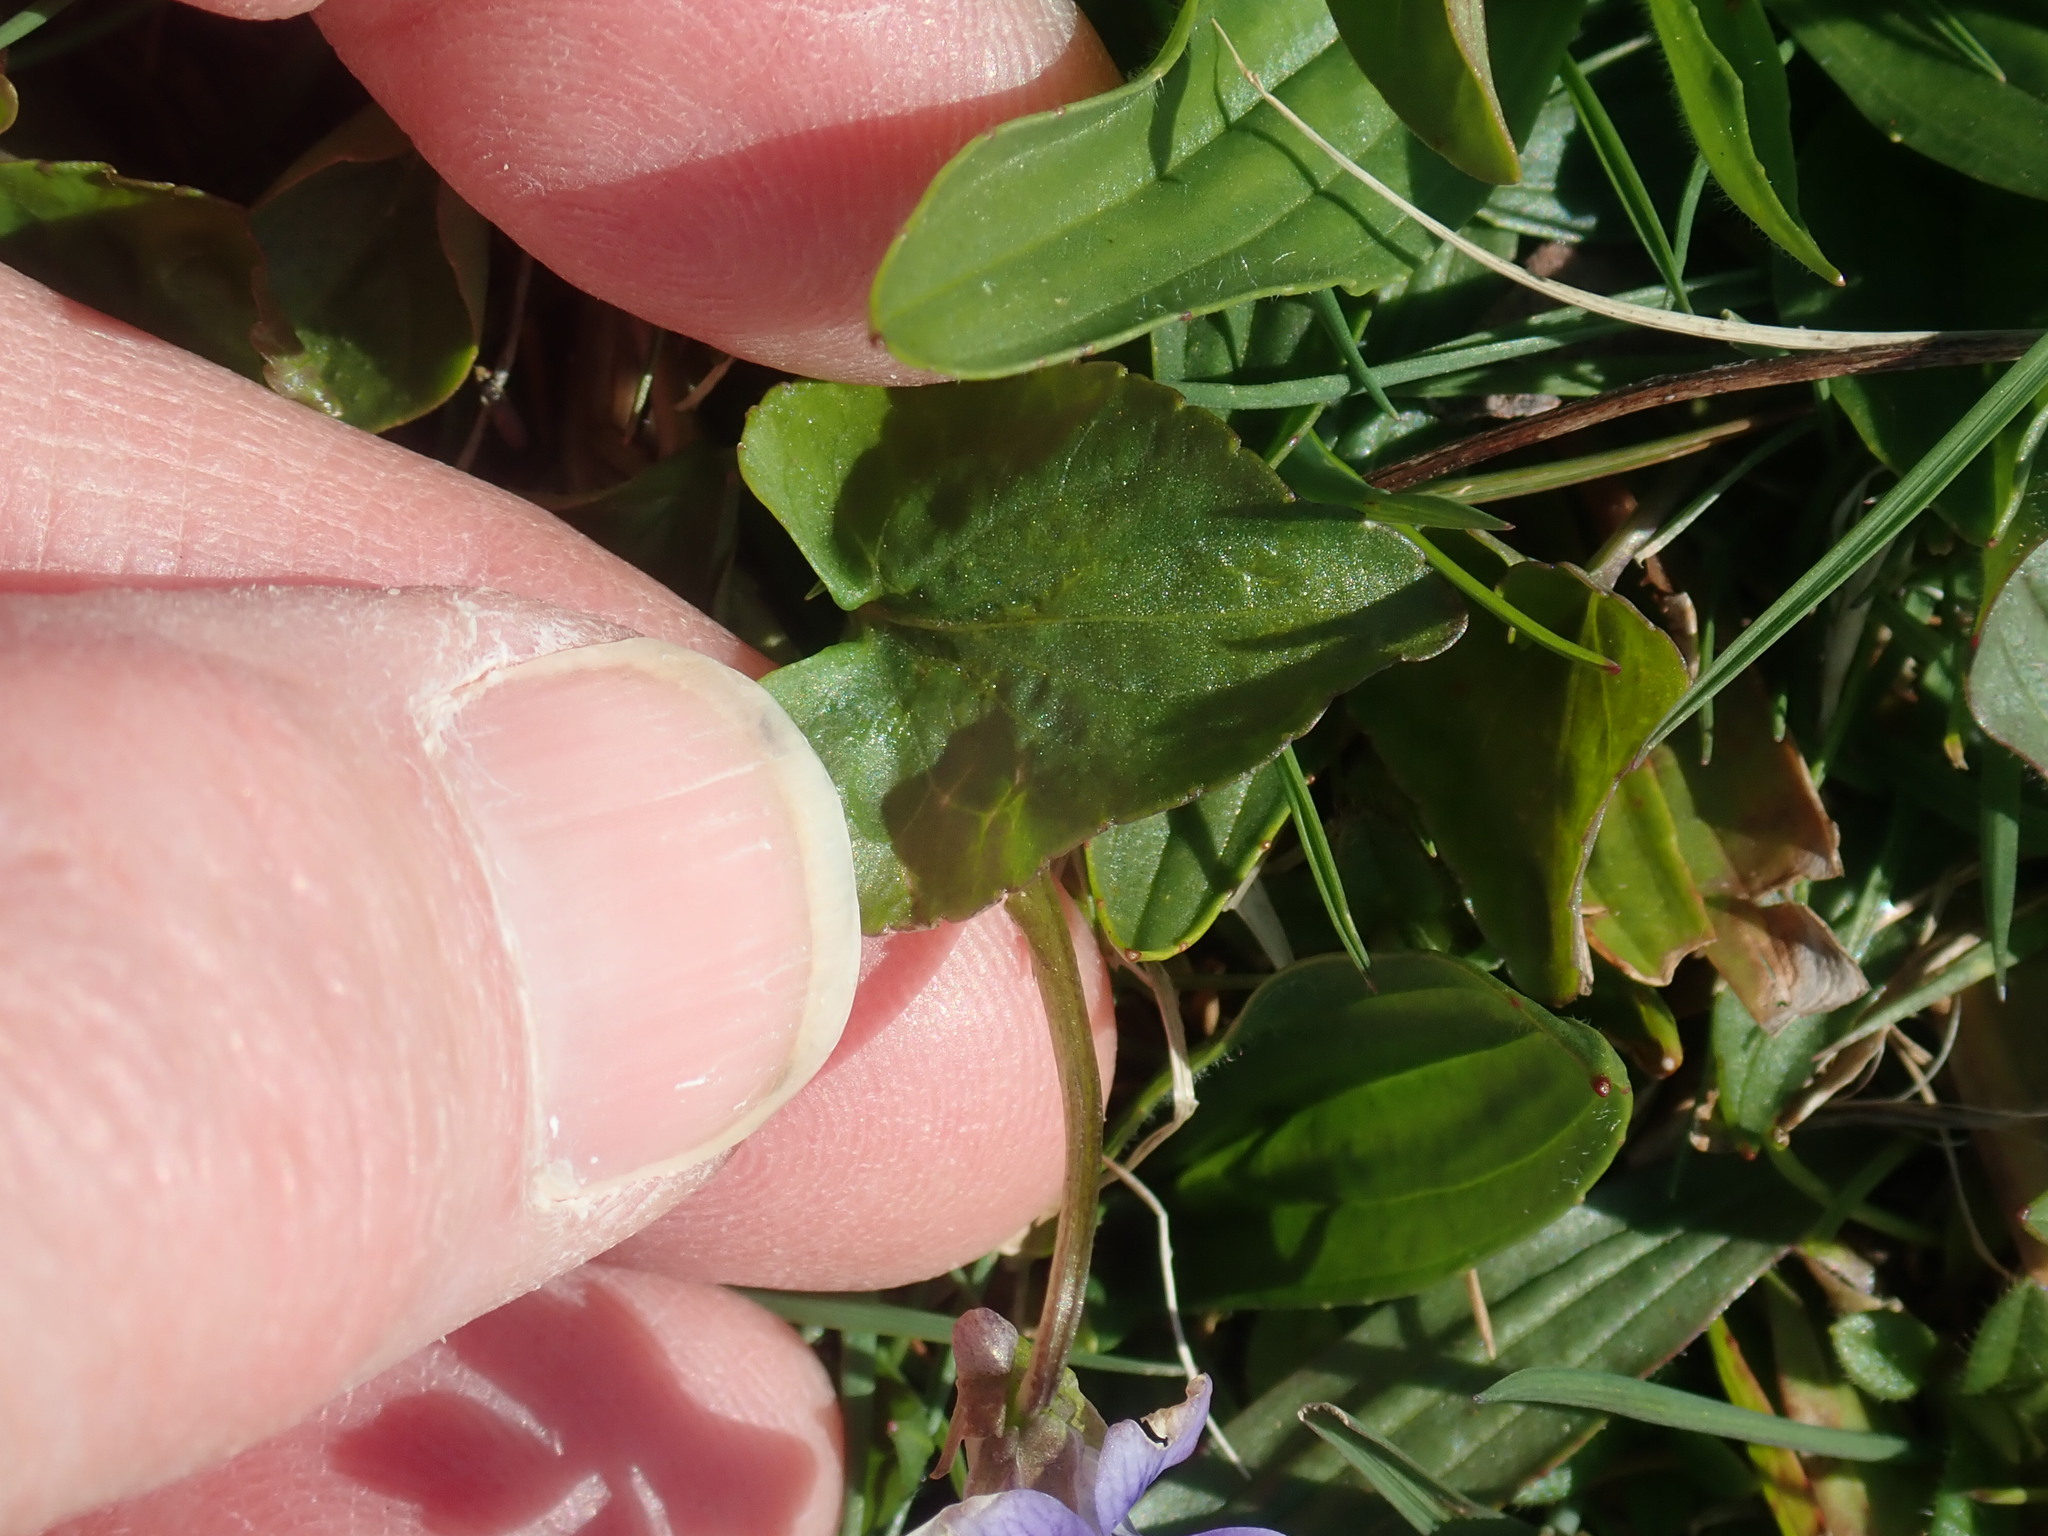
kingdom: Plantae
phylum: Tracheophyta
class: Magnoliopsida
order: Malpighiales
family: Violaceae
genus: Viola
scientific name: Viola sororia
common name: Dooryard violet
